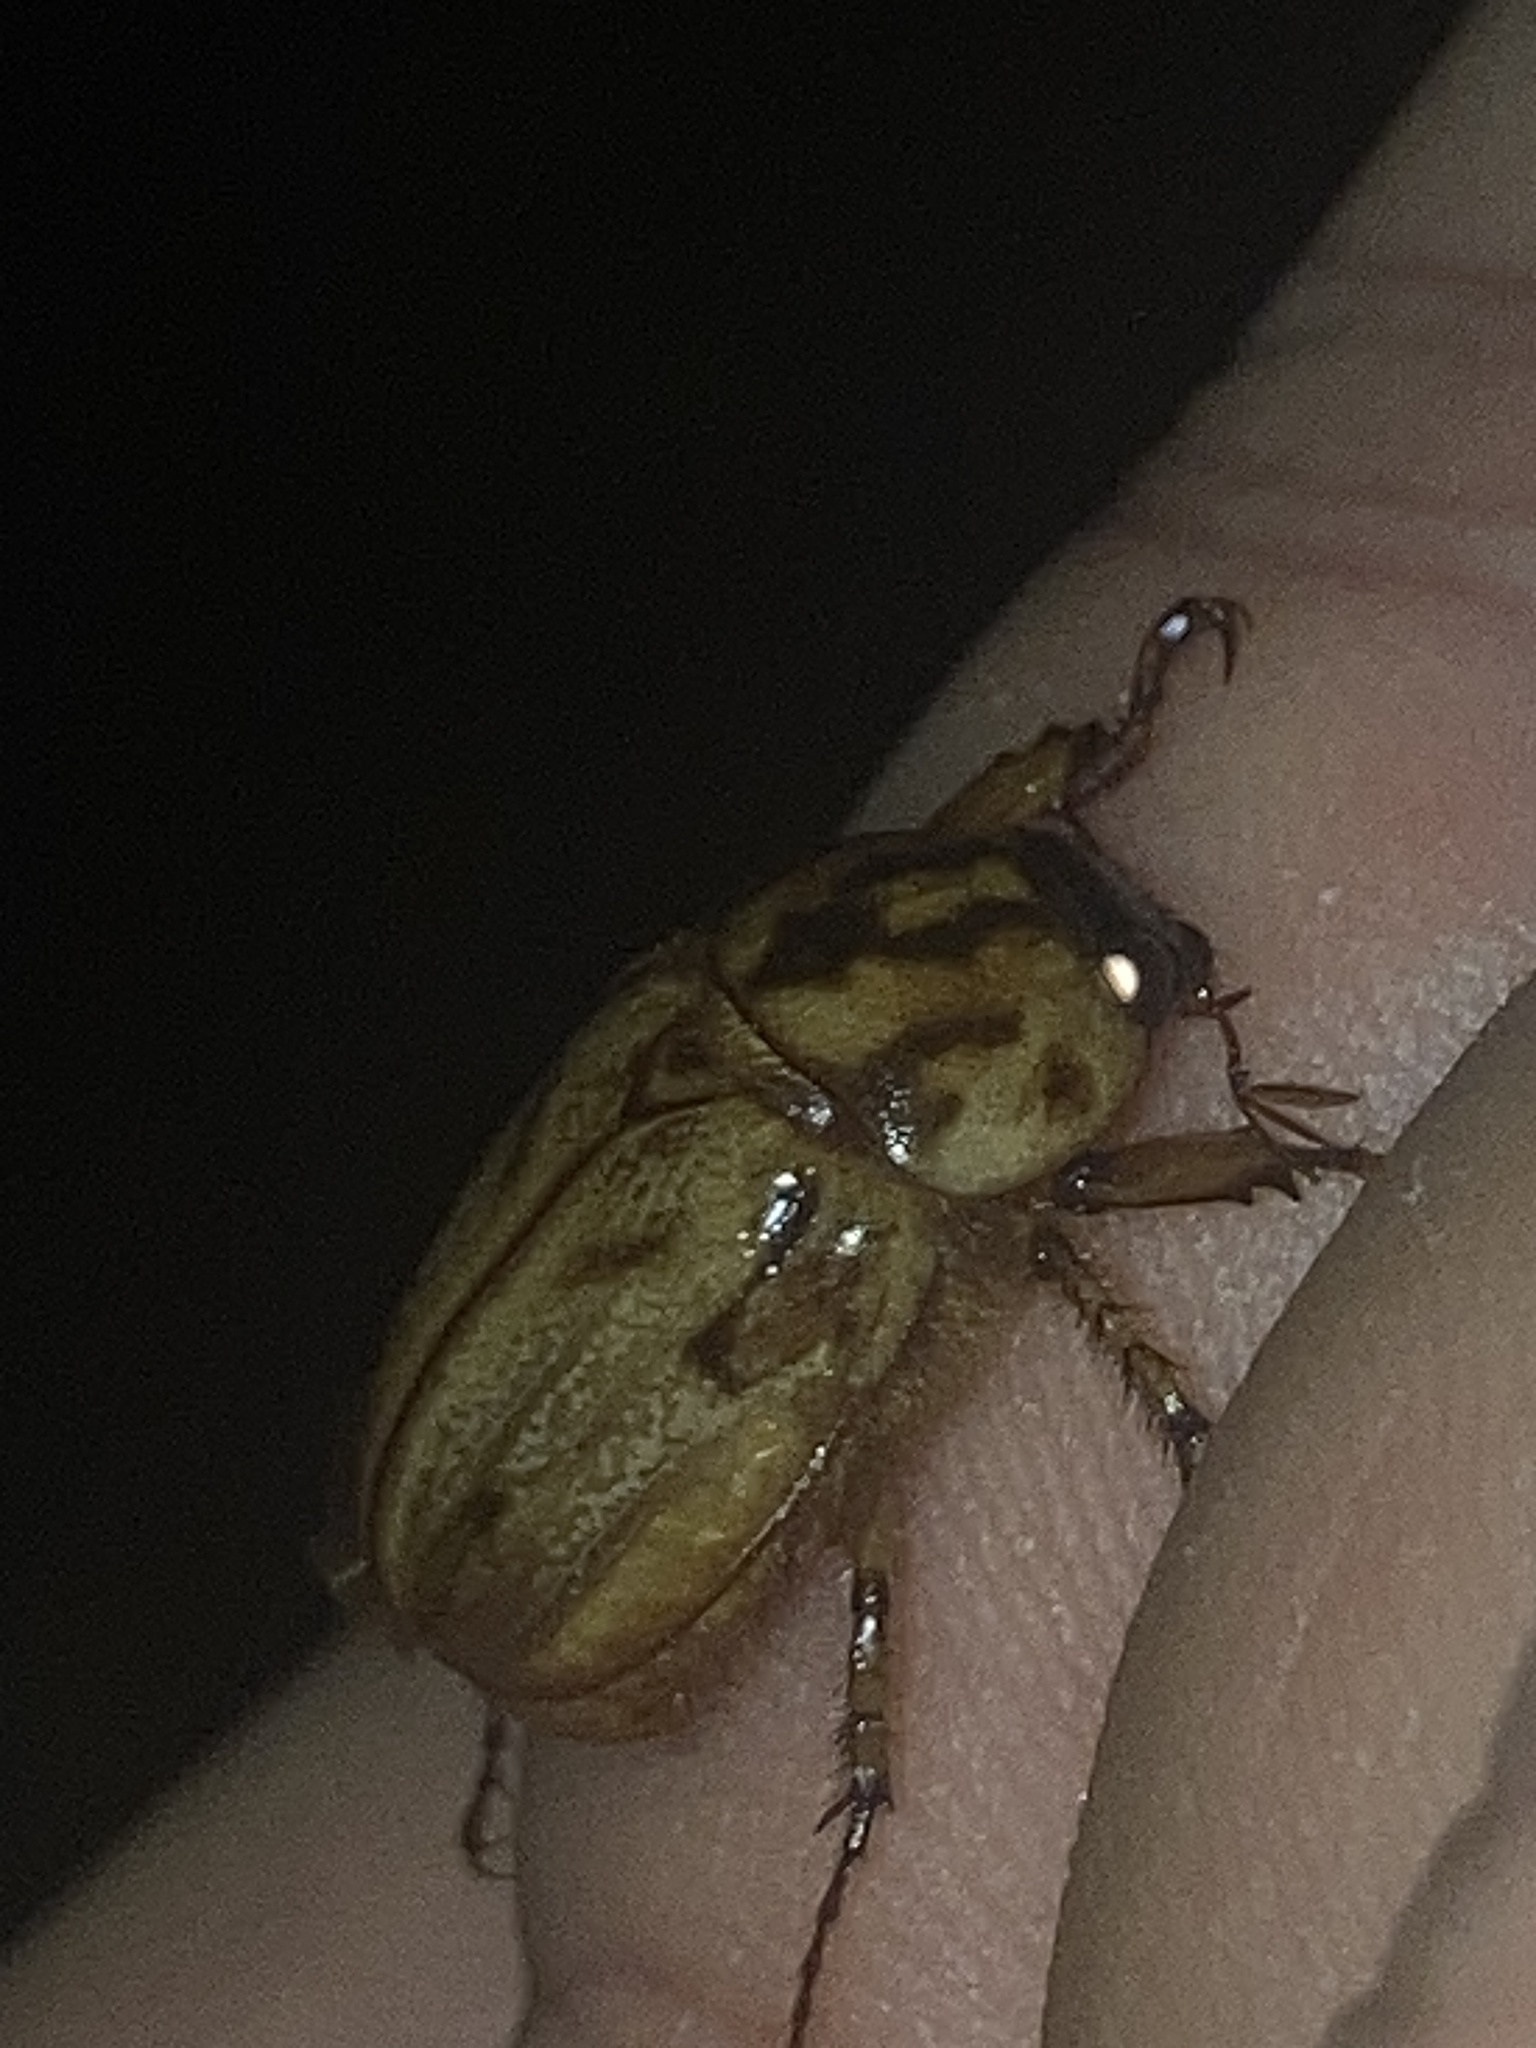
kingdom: Animalia
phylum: Arthropoda
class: Insecta
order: Coleoptera
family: Scarabaeidae
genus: Cyclocephala
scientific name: Cyclocephala signaticollis
